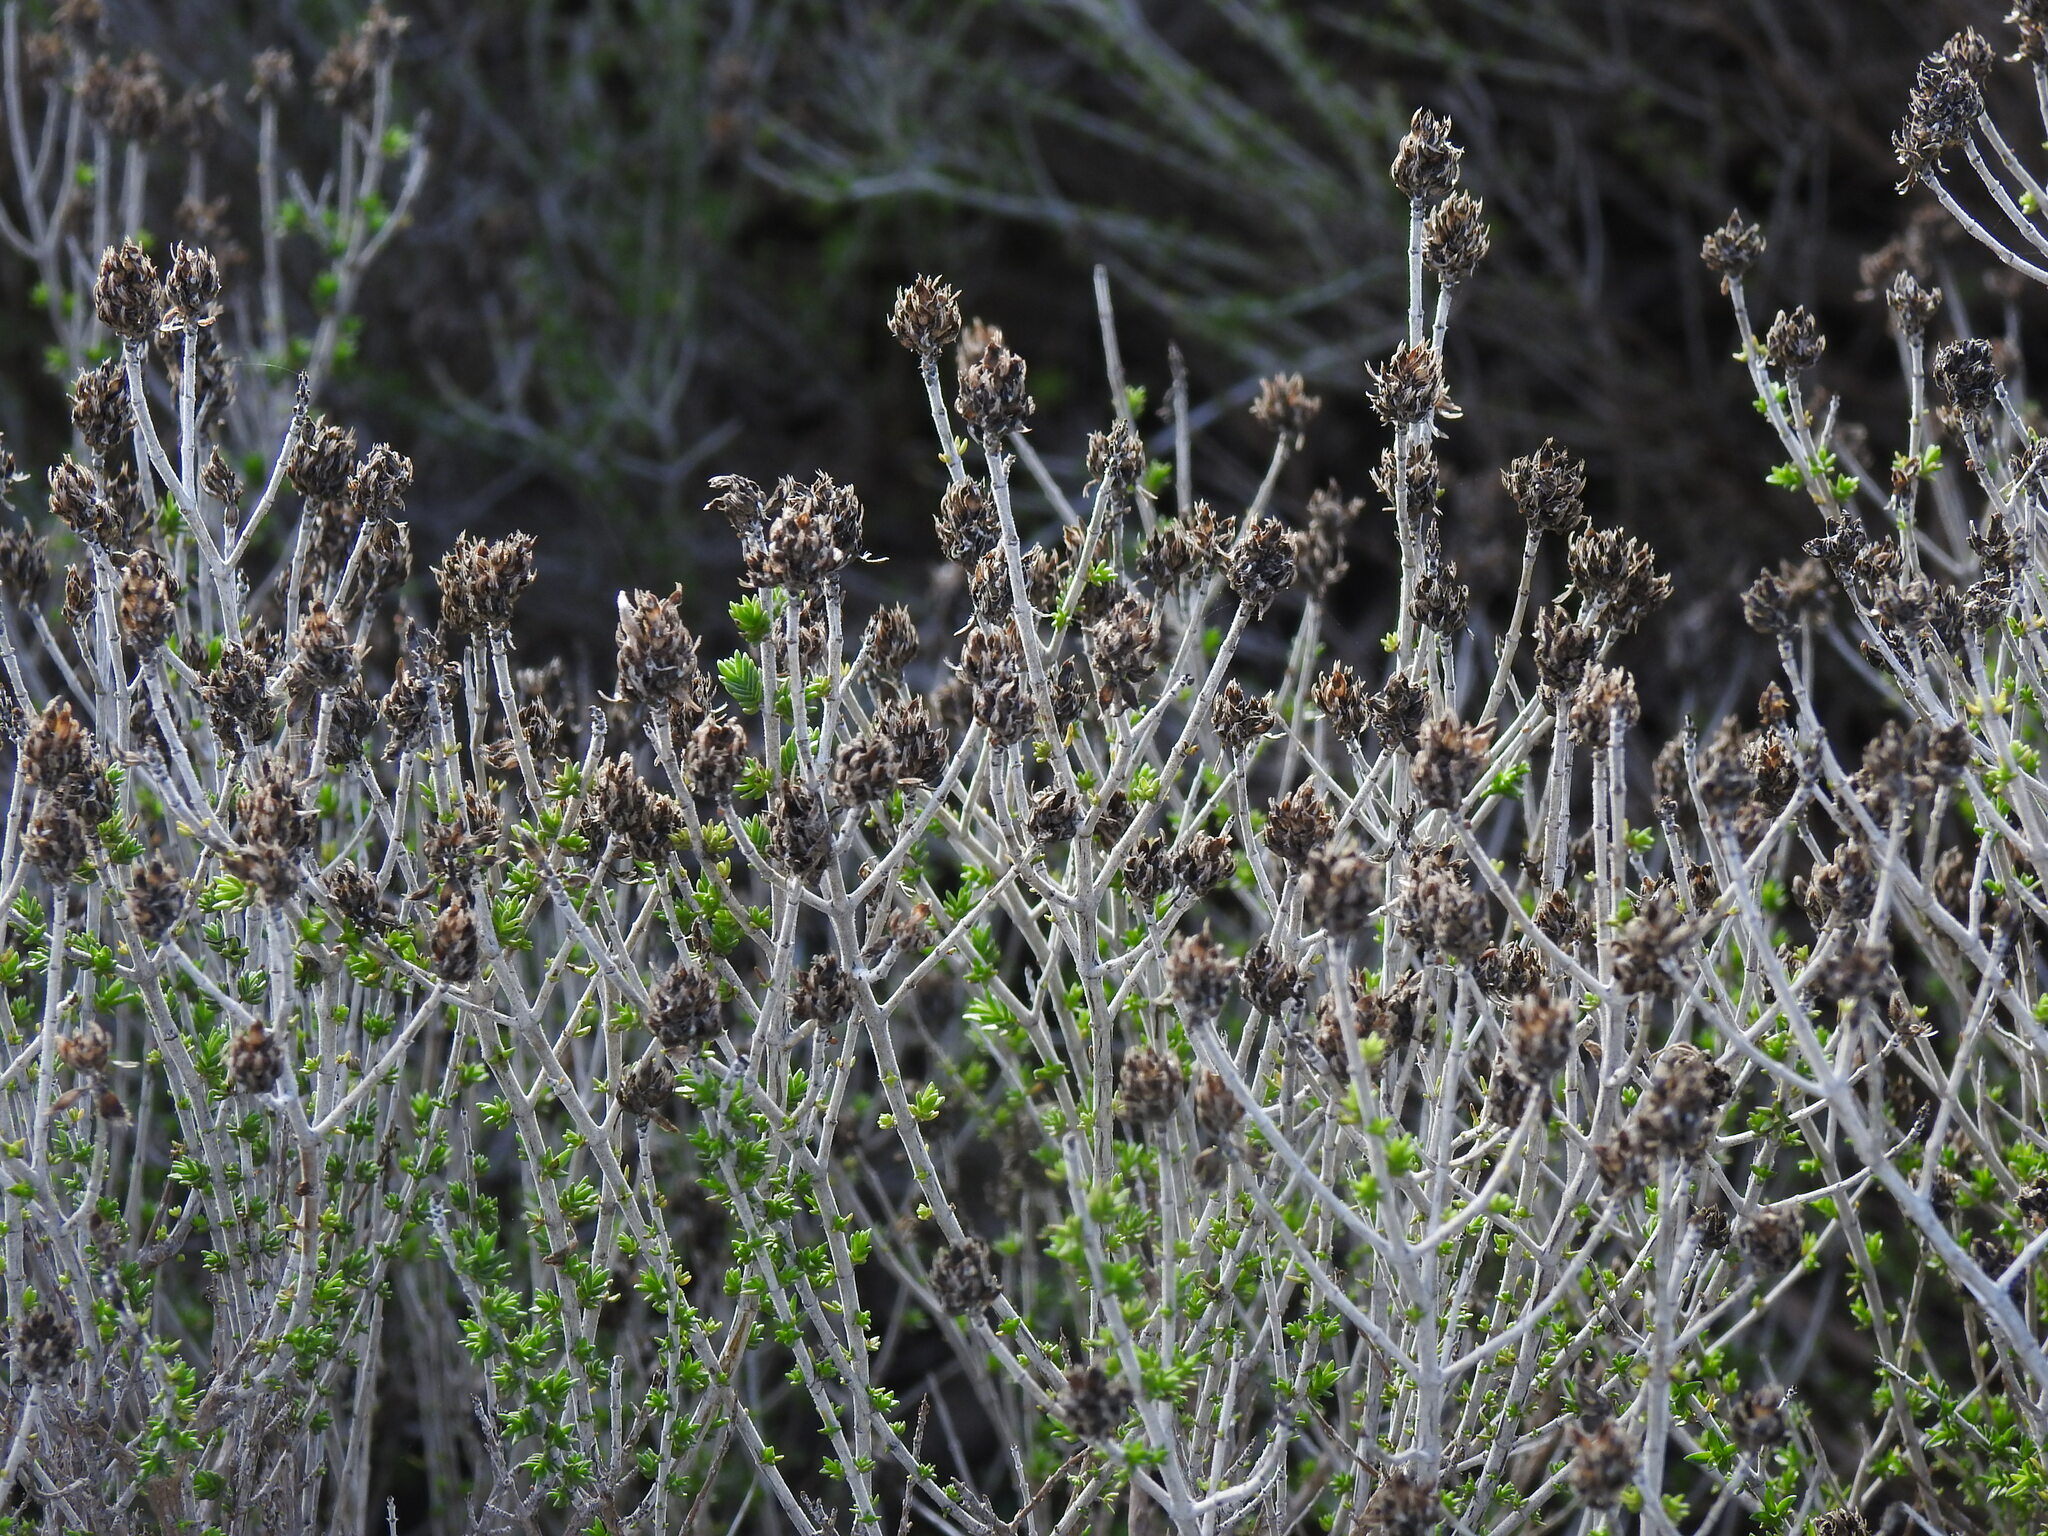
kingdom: Plantae
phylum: Tracheophyta
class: Magnoliopsida
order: Lamiales
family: Lamiaceae
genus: Thymbra
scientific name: Thymbra capitata
